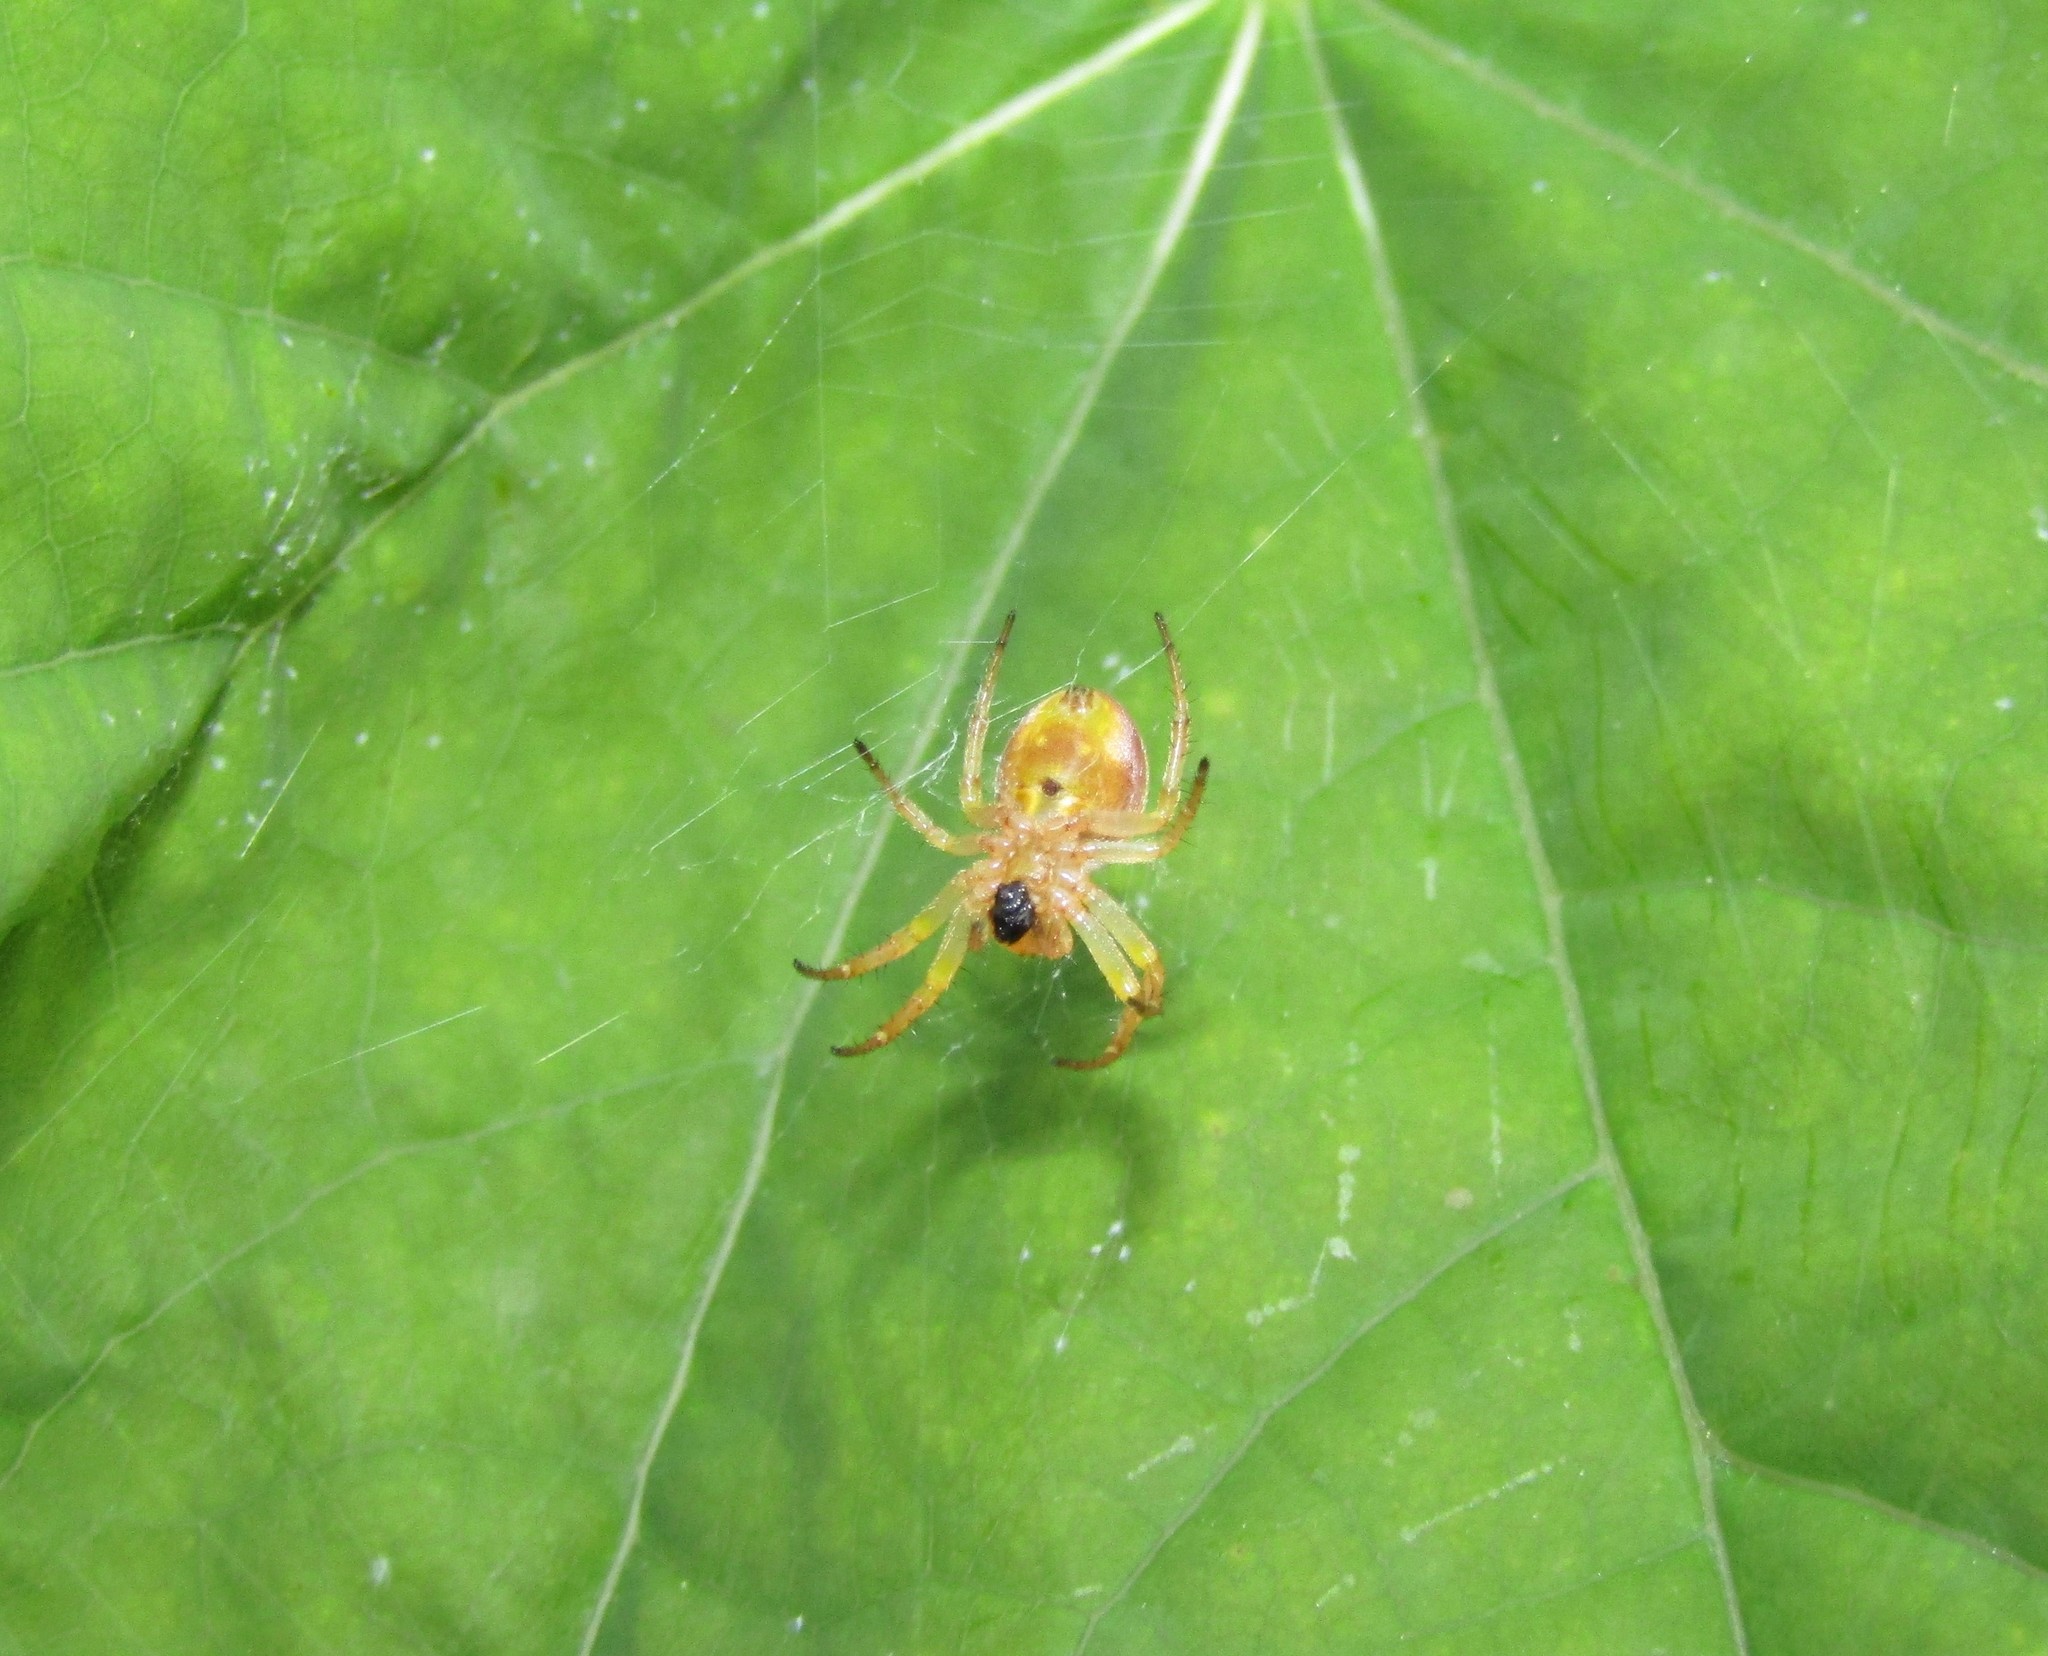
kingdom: Animalia
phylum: Arthropoda
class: Arachnida
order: Araneae
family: Araneidae
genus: Araniella
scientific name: Araniella displicata
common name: Sixspotted orb weaver
